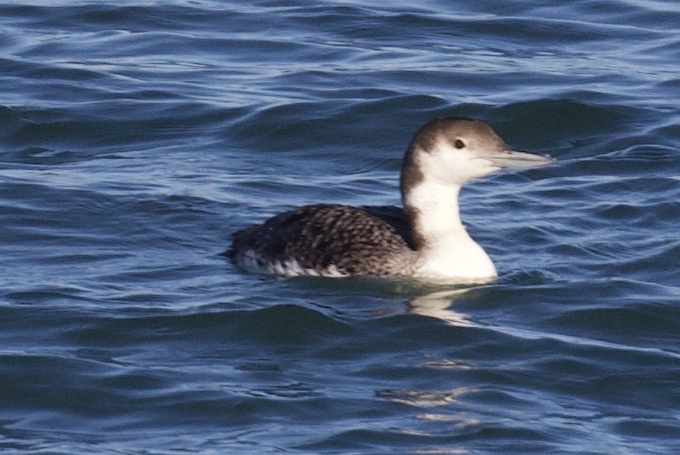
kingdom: Animalia
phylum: Chordata
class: Aves
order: Gaviiformes
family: Gaviidae
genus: Gavia
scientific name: Gavia immer
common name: Common loon
